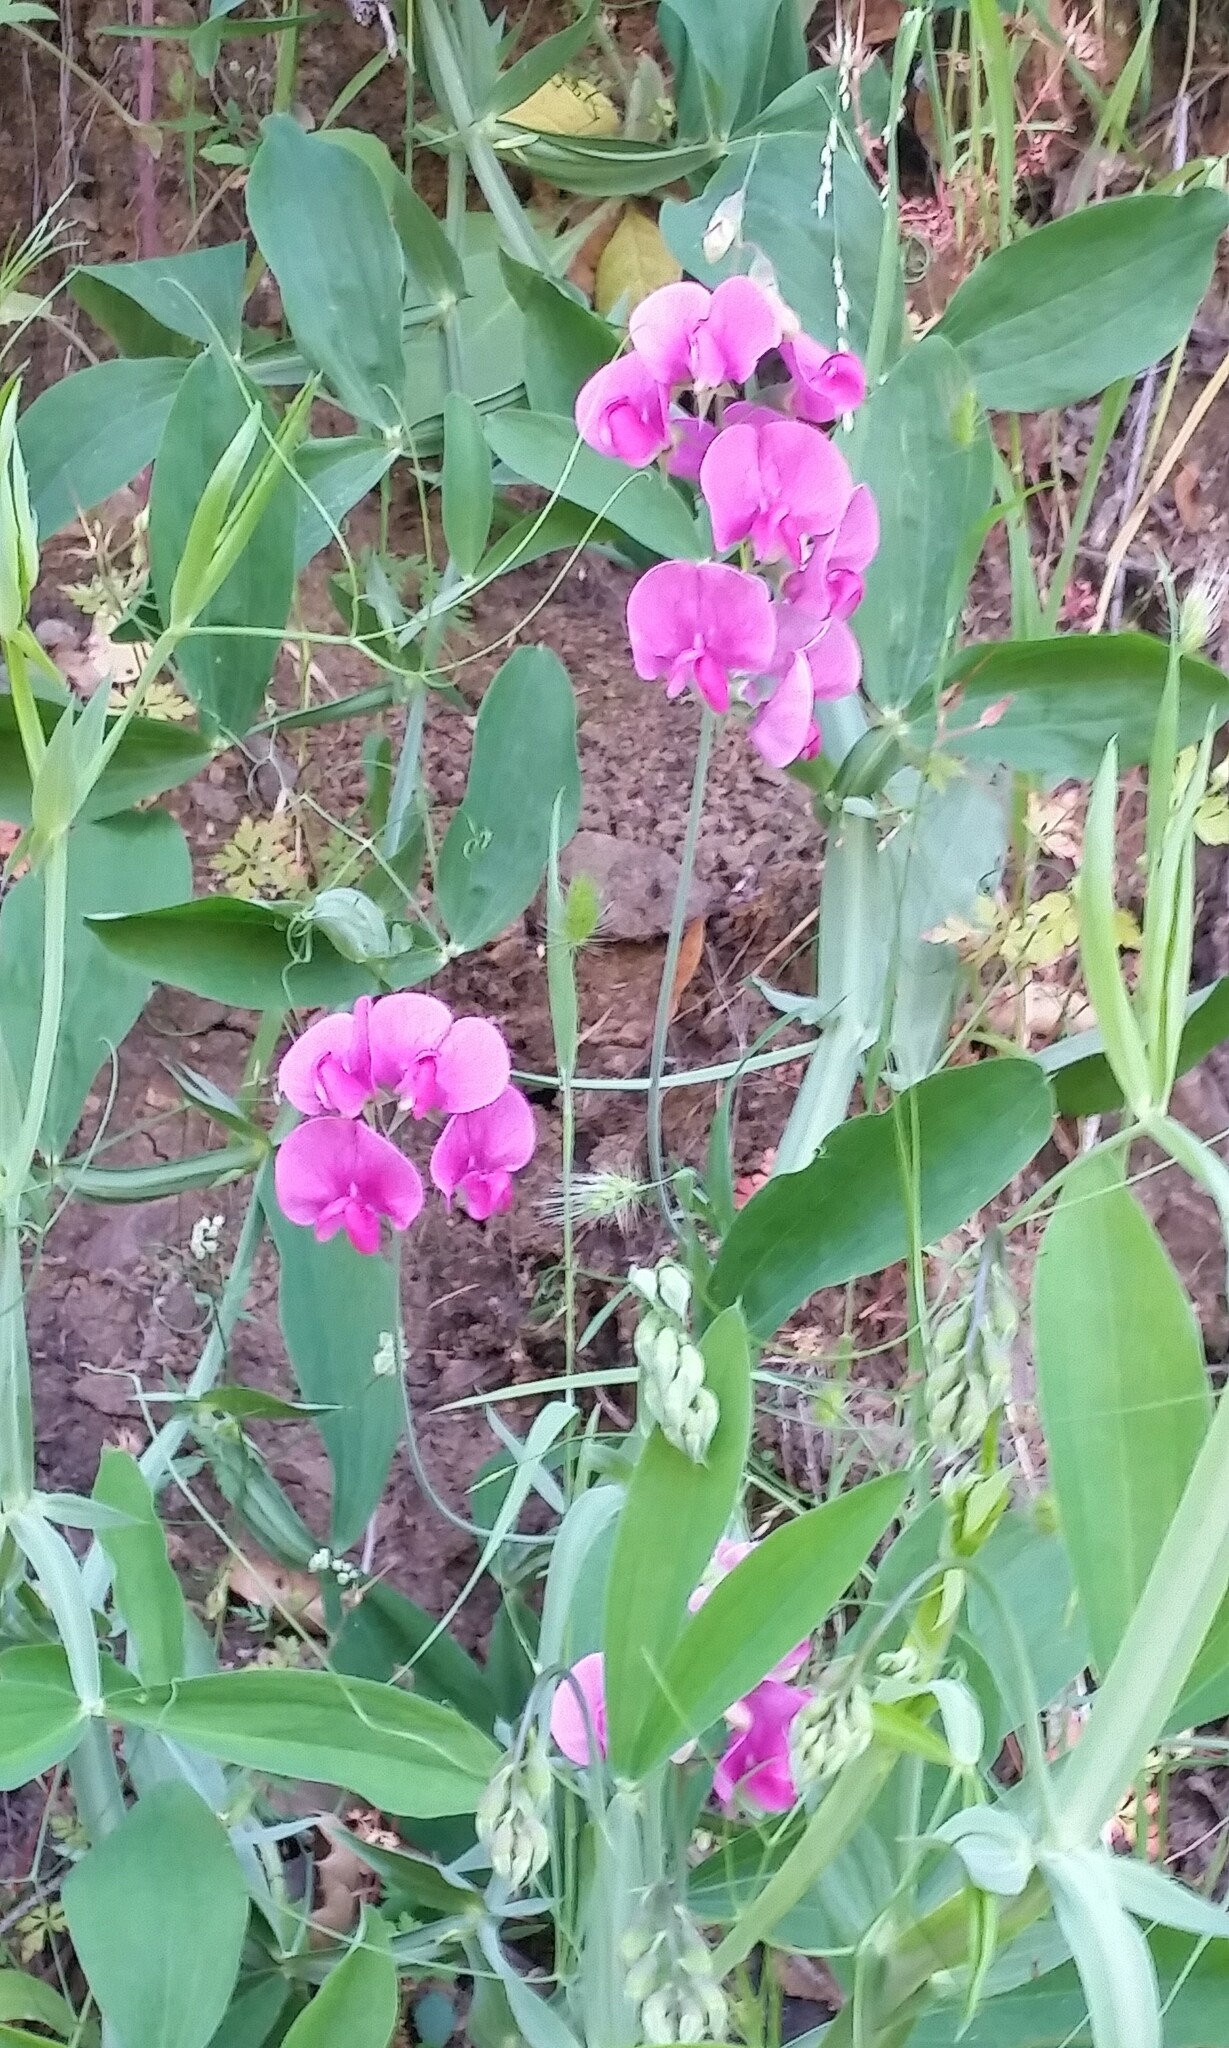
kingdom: Plantae
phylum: Tracheophyta
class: Magnoliopsida
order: Fabales
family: Fabaceae
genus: Lathyrus
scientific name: Lathyrus latifolius
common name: Perennial pea
